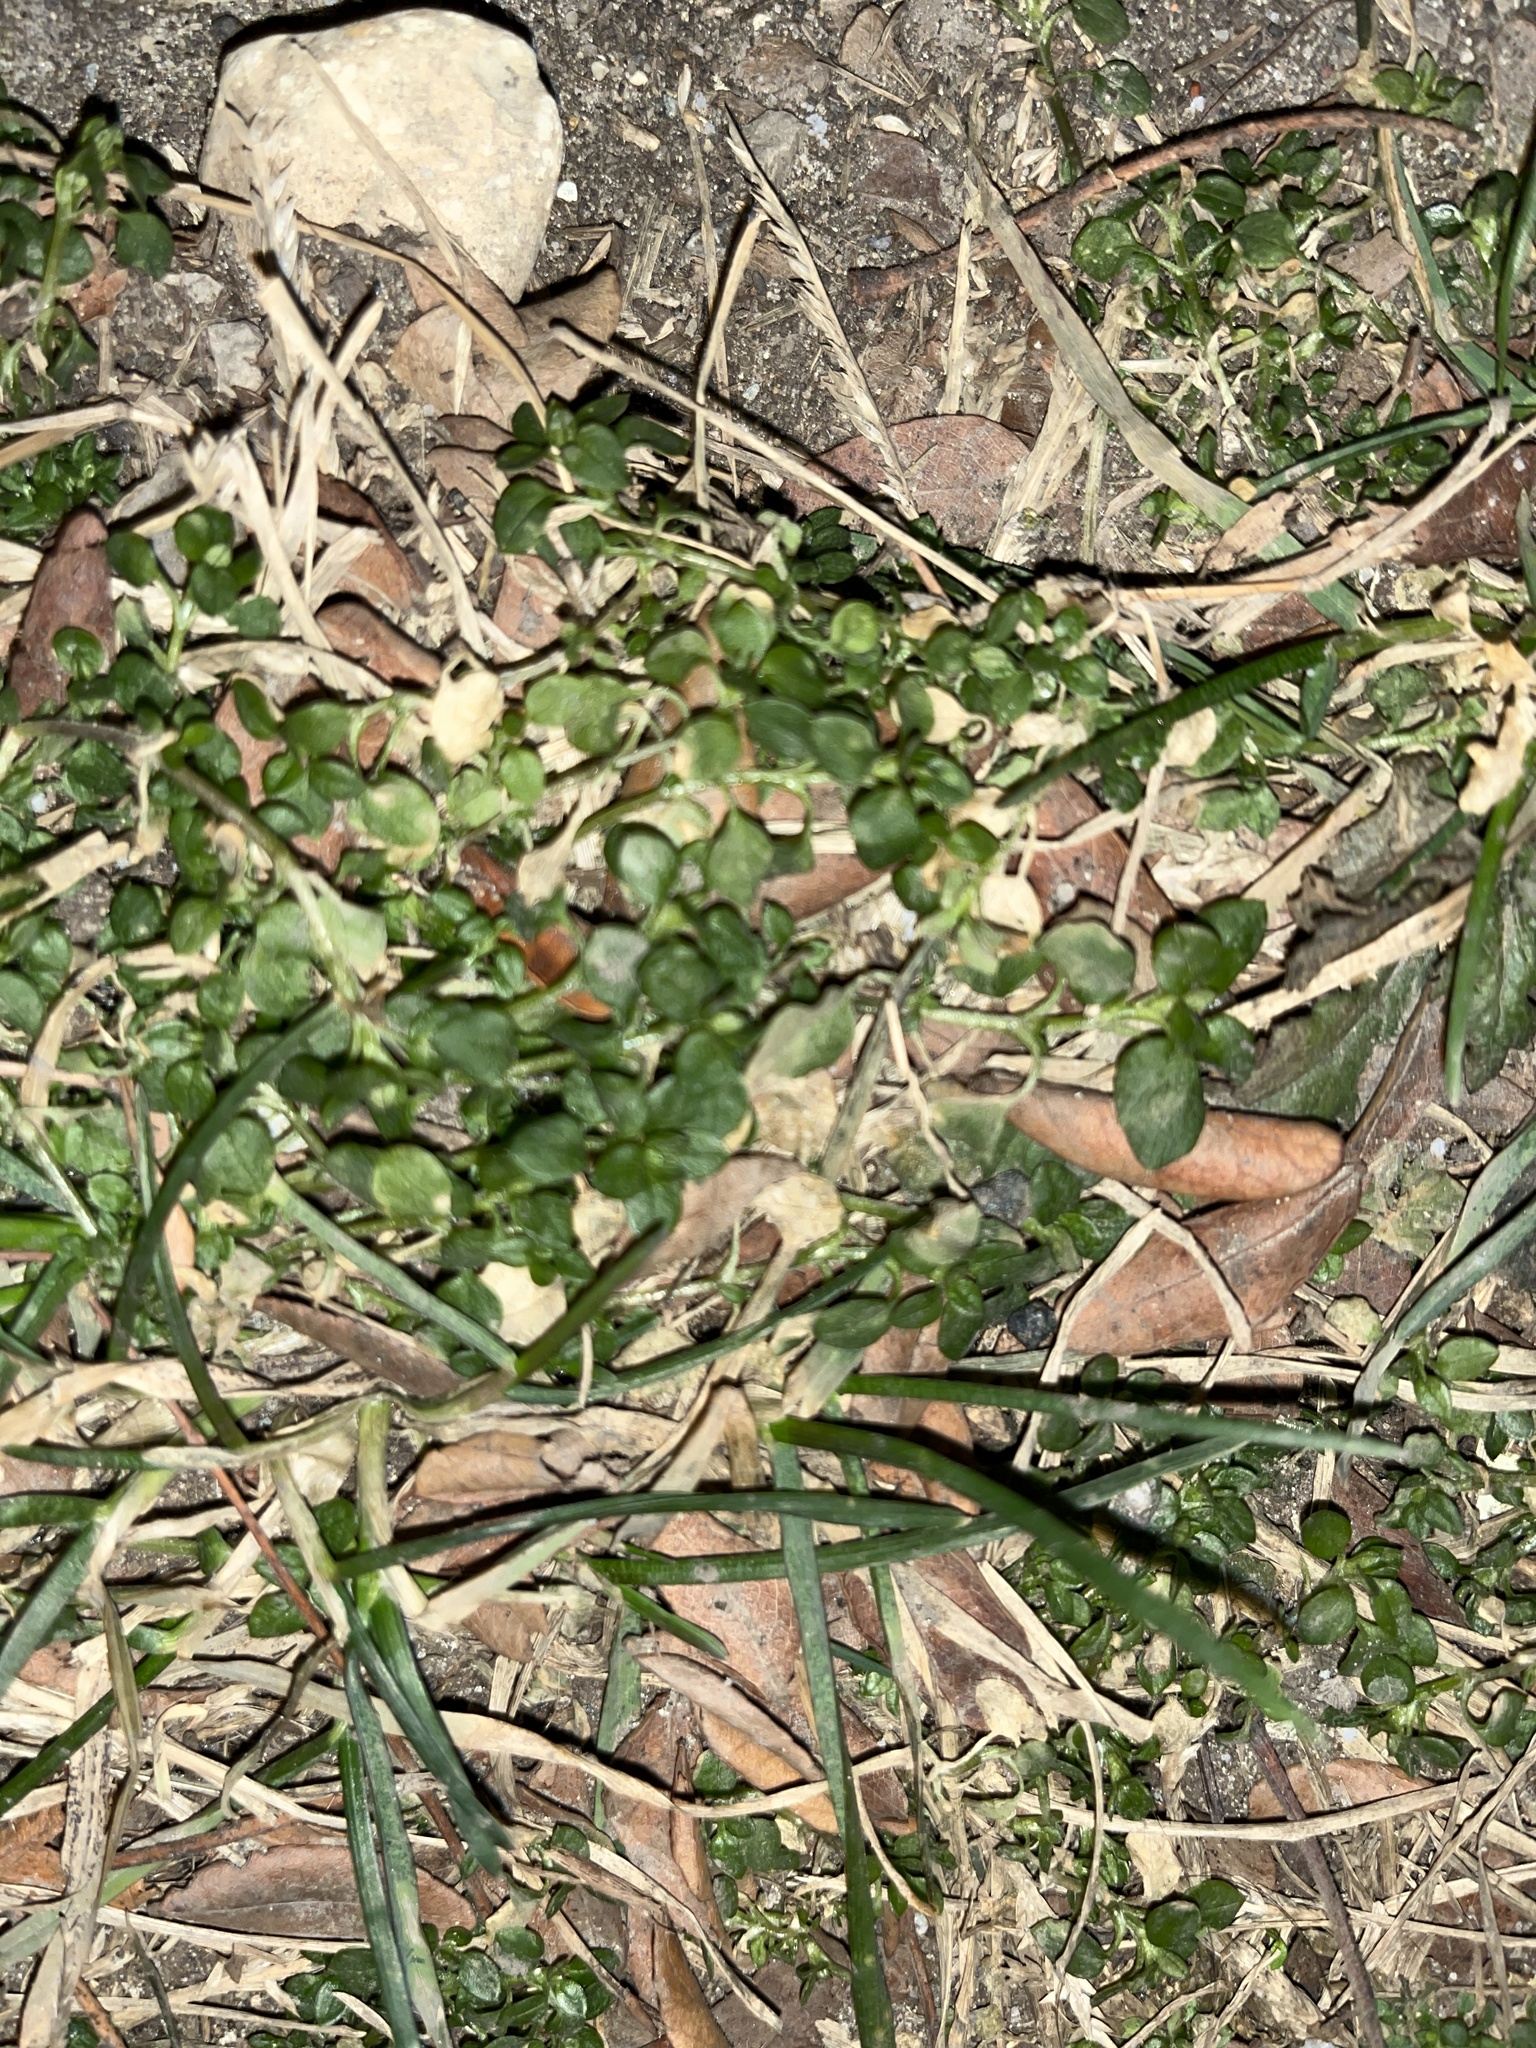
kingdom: Plantae
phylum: Tracheophyta
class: Magnoliopsida
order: Caryophyllales
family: Caryophyllaceae
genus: Stellaria
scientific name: Stellaria media
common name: Common chickweed
